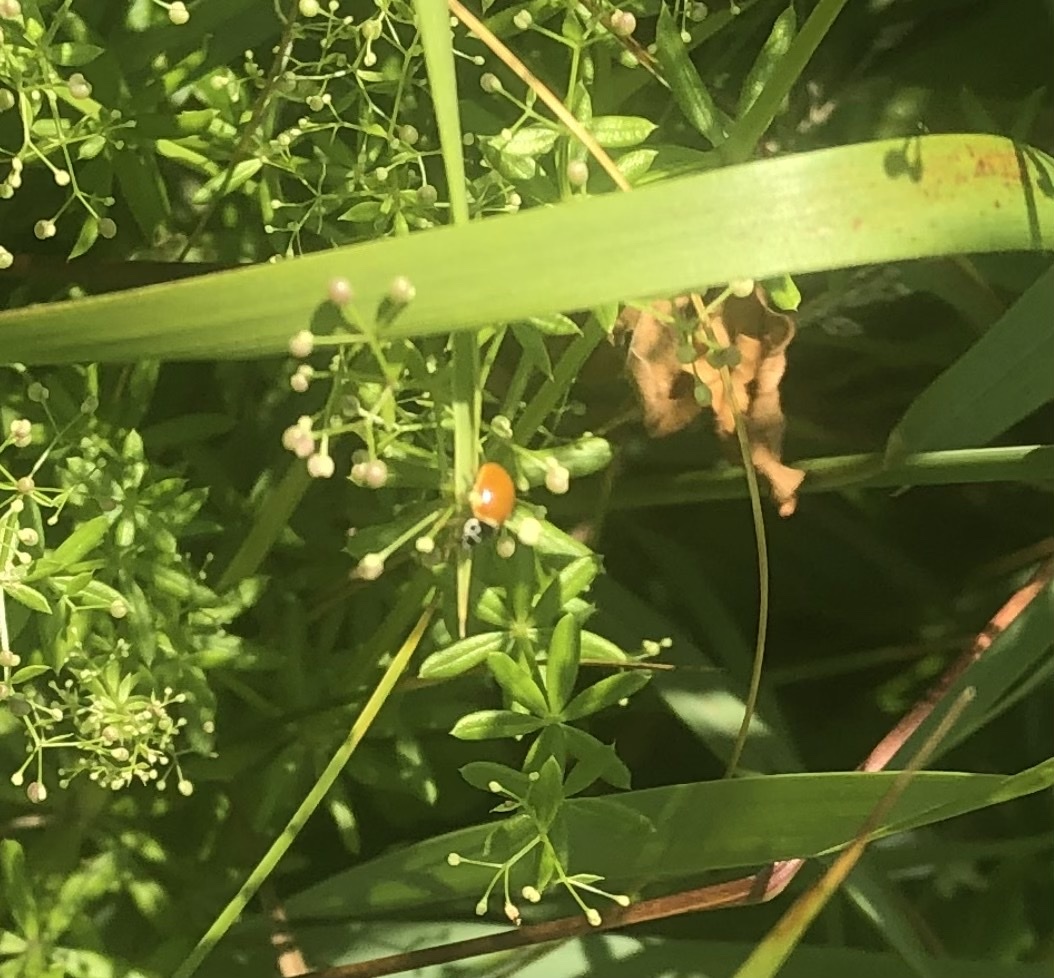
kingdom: Animalia
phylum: Arthropoda
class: Insecta
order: Coleoptera
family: Coccinellidae
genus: Cycloneda
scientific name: Cycloneda munda
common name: Polished lady beetle
